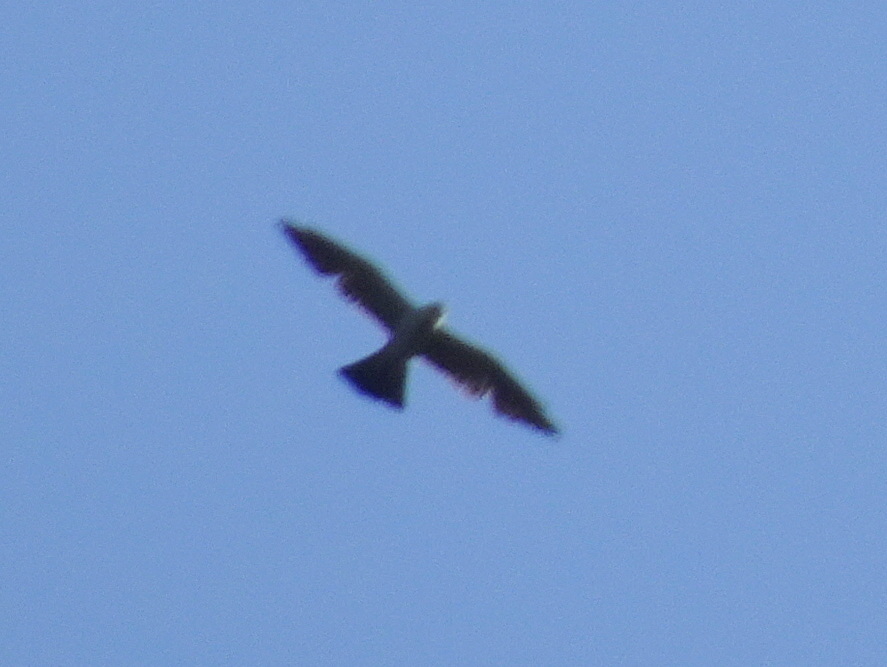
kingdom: Animalia
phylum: Chordata
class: Aves
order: Accipitriformes
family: Accipitridae
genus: Ictinia
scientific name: Ictinia mississippiensis
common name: Mississippi kite
